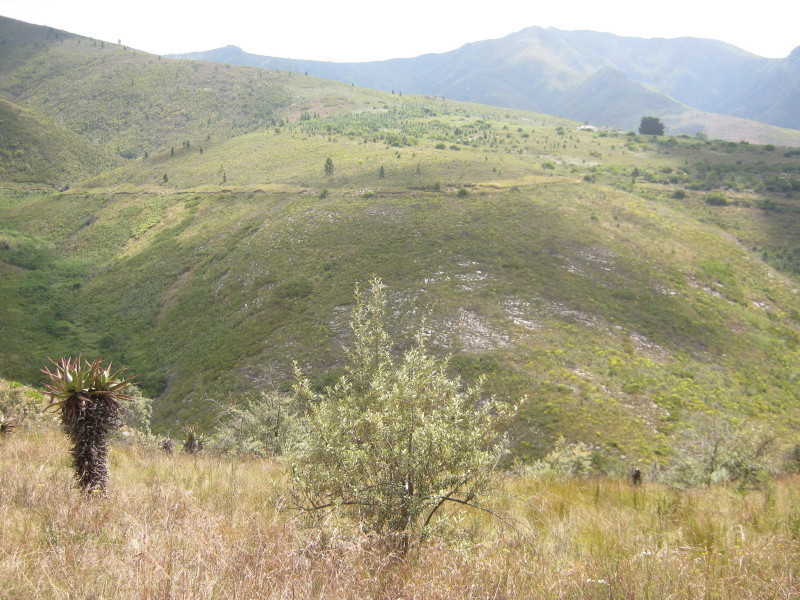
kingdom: Plantae
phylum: Tracheophyta
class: Magnoliopsida
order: Asterales
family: Asteraceae
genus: Tarchonanthus
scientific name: Tarchonanthus littoralis
